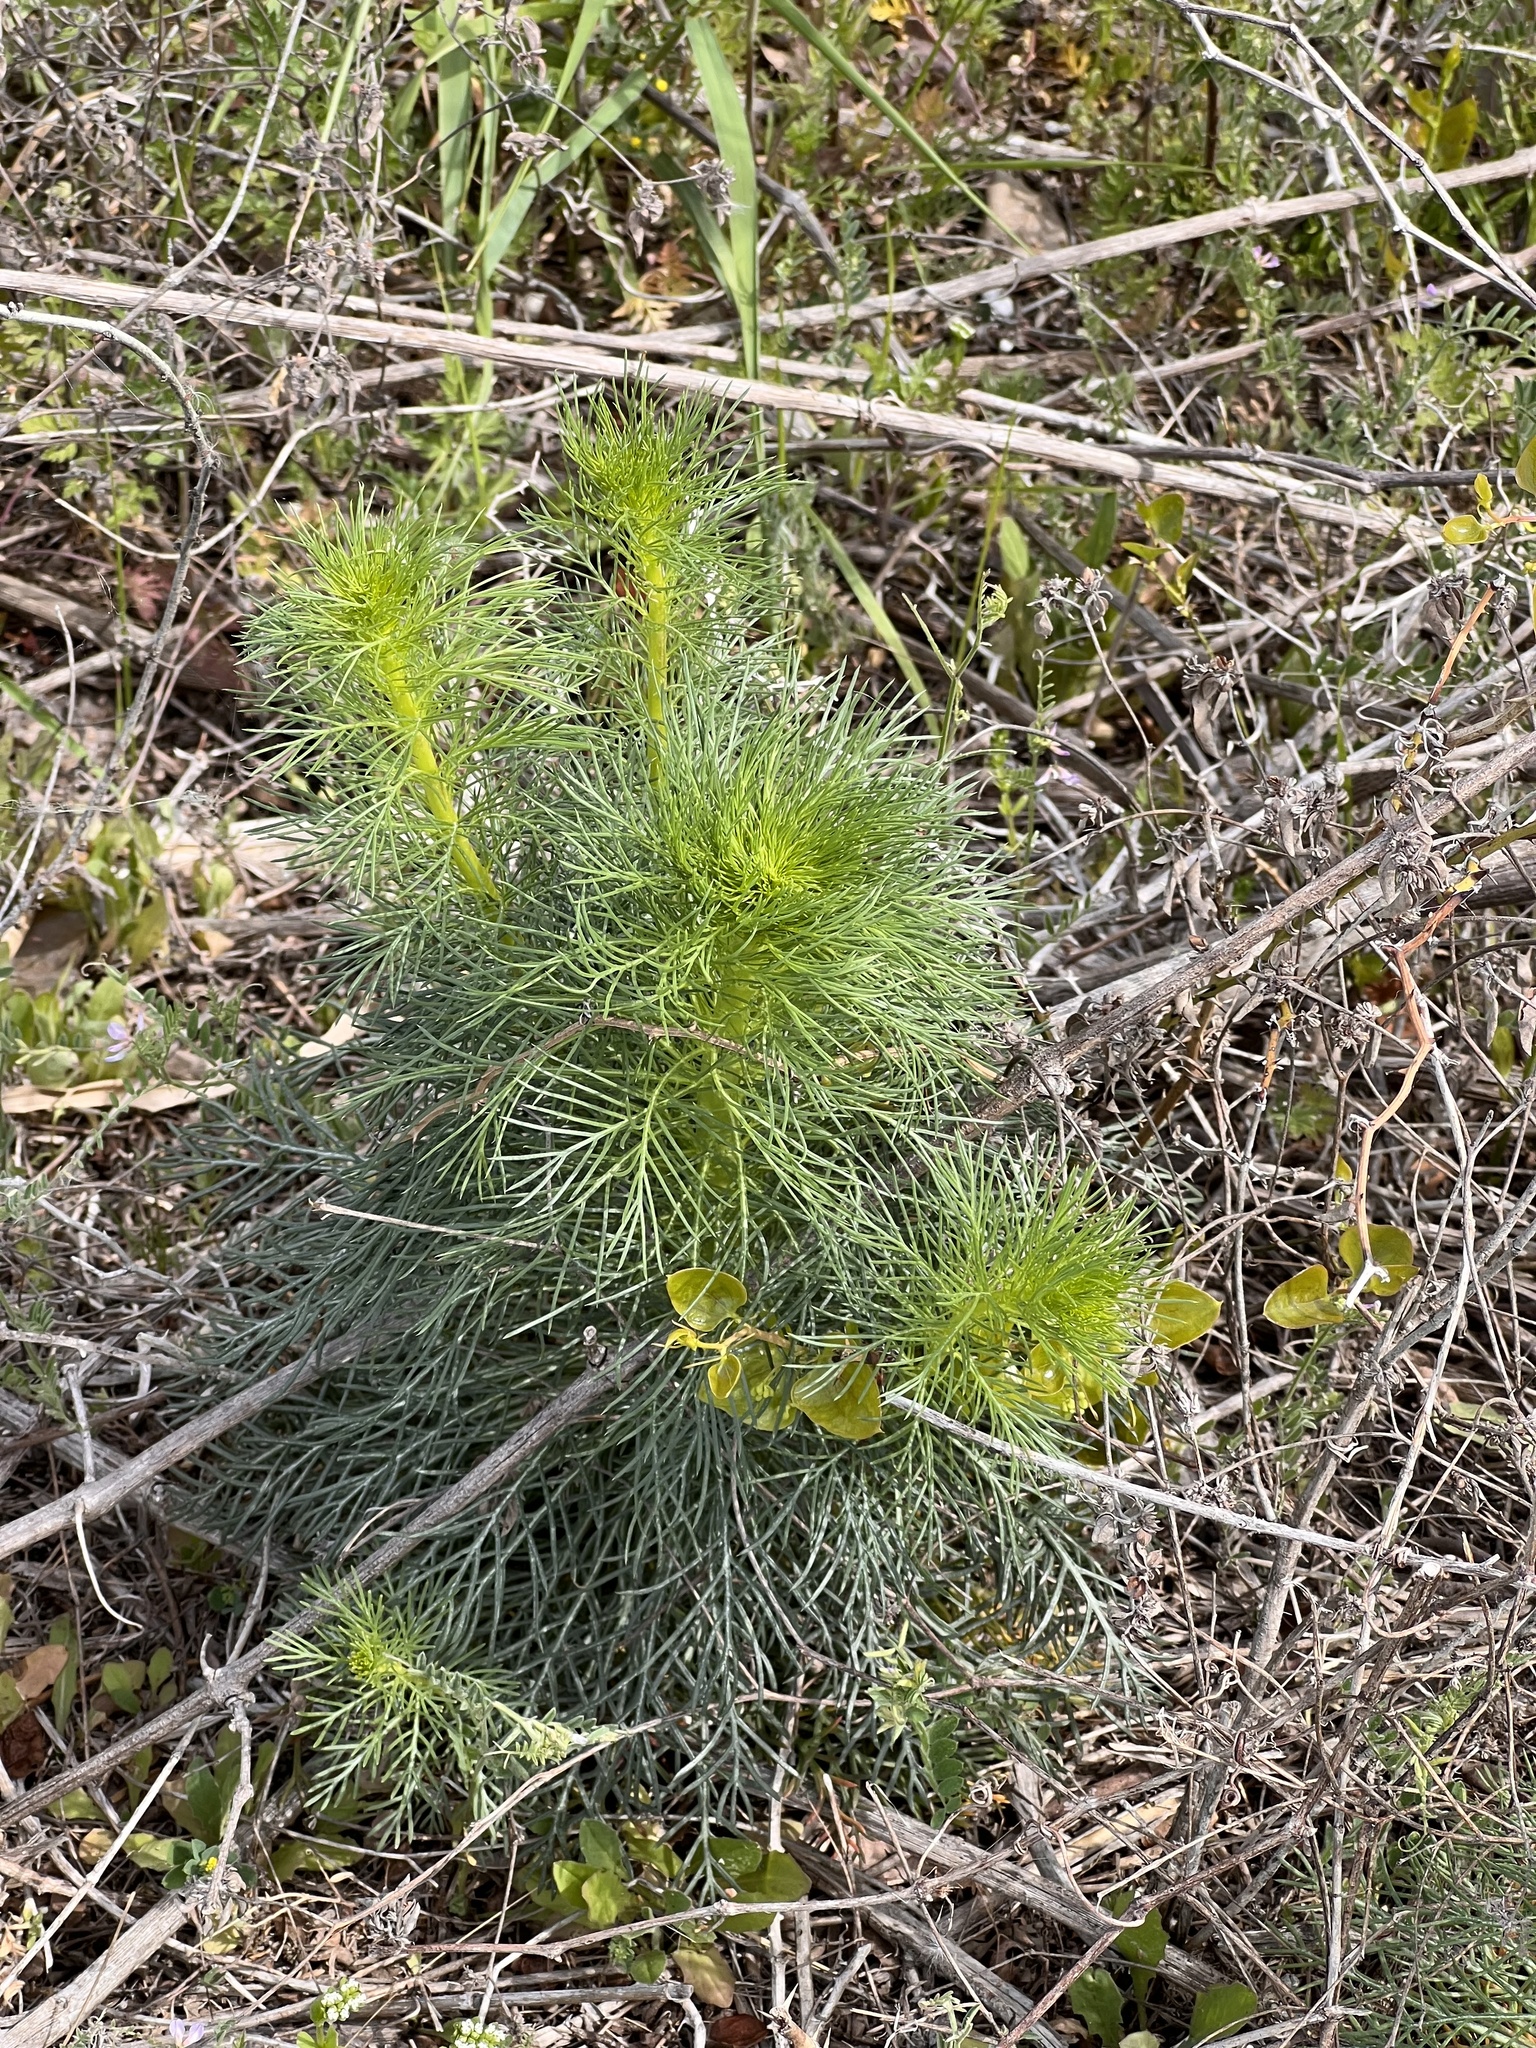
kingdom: Plantae
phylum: Tracheophyta
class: Magnoliopsida
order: Ericales
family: Polemoniaceae
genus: Ipomopsis
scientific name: Ipomopsis rubra
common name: Skyrocket
